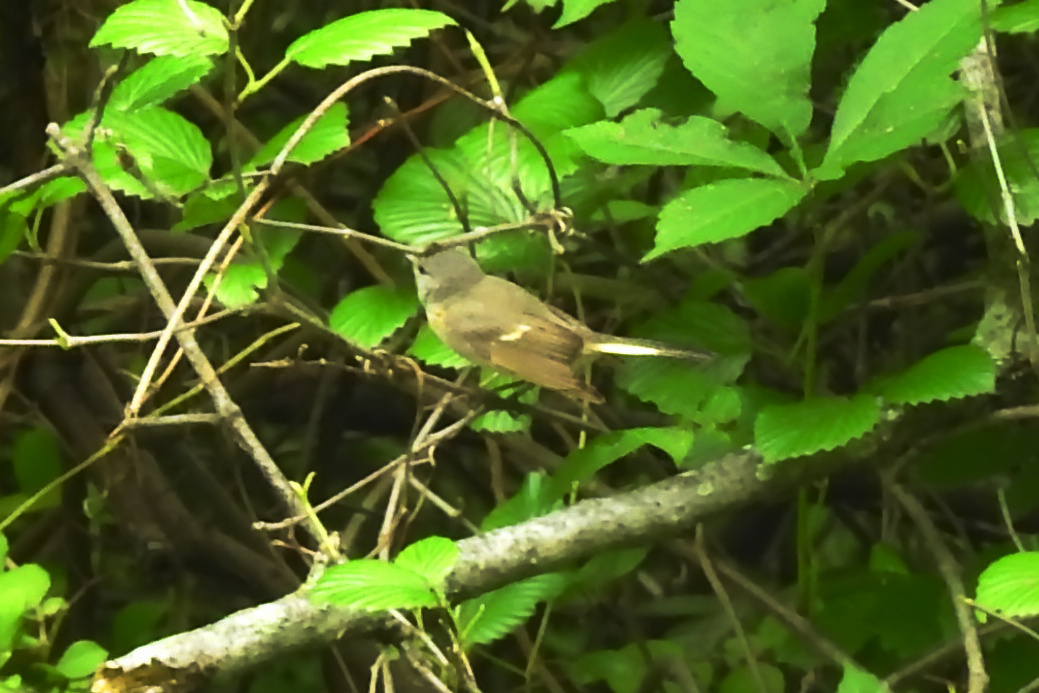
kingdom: Animalia
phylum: Chordata
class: Aves
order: Passeriformes
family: Parulidae
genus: Setophaga
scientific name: Setophaga ruticilla
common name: American redstart
